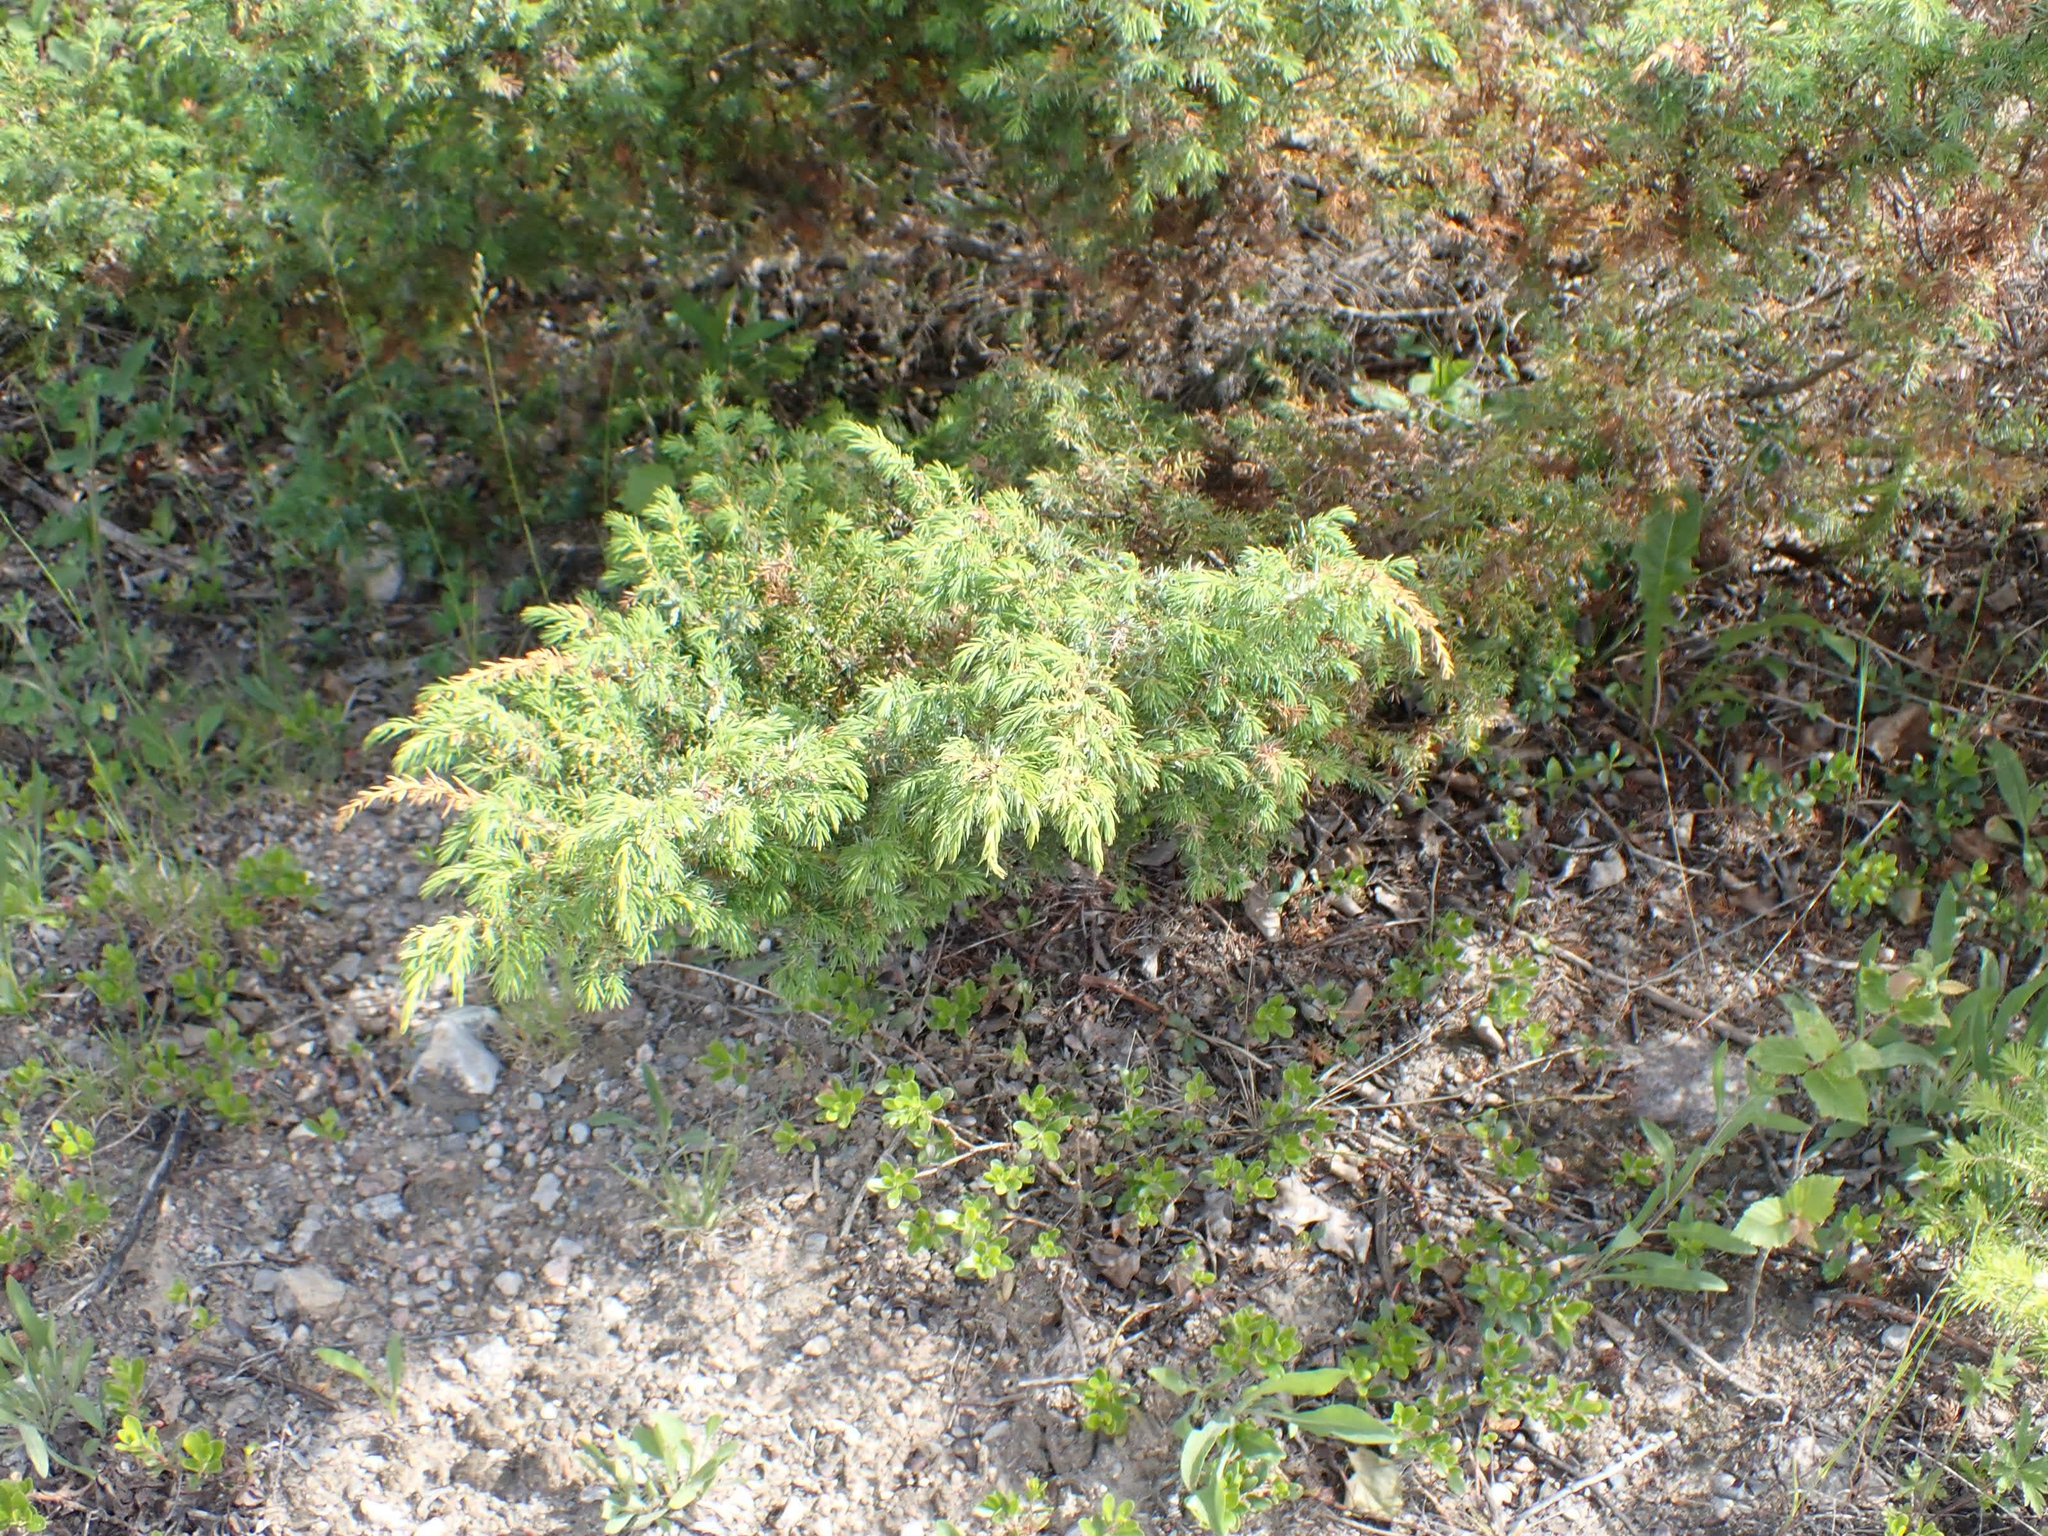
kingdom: Plantae
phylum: Tracheophyta
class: Pinopsida
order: Pinales
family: Cupressaceae
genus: Juniperus
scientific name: Juniperus communis
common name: Common juniper
